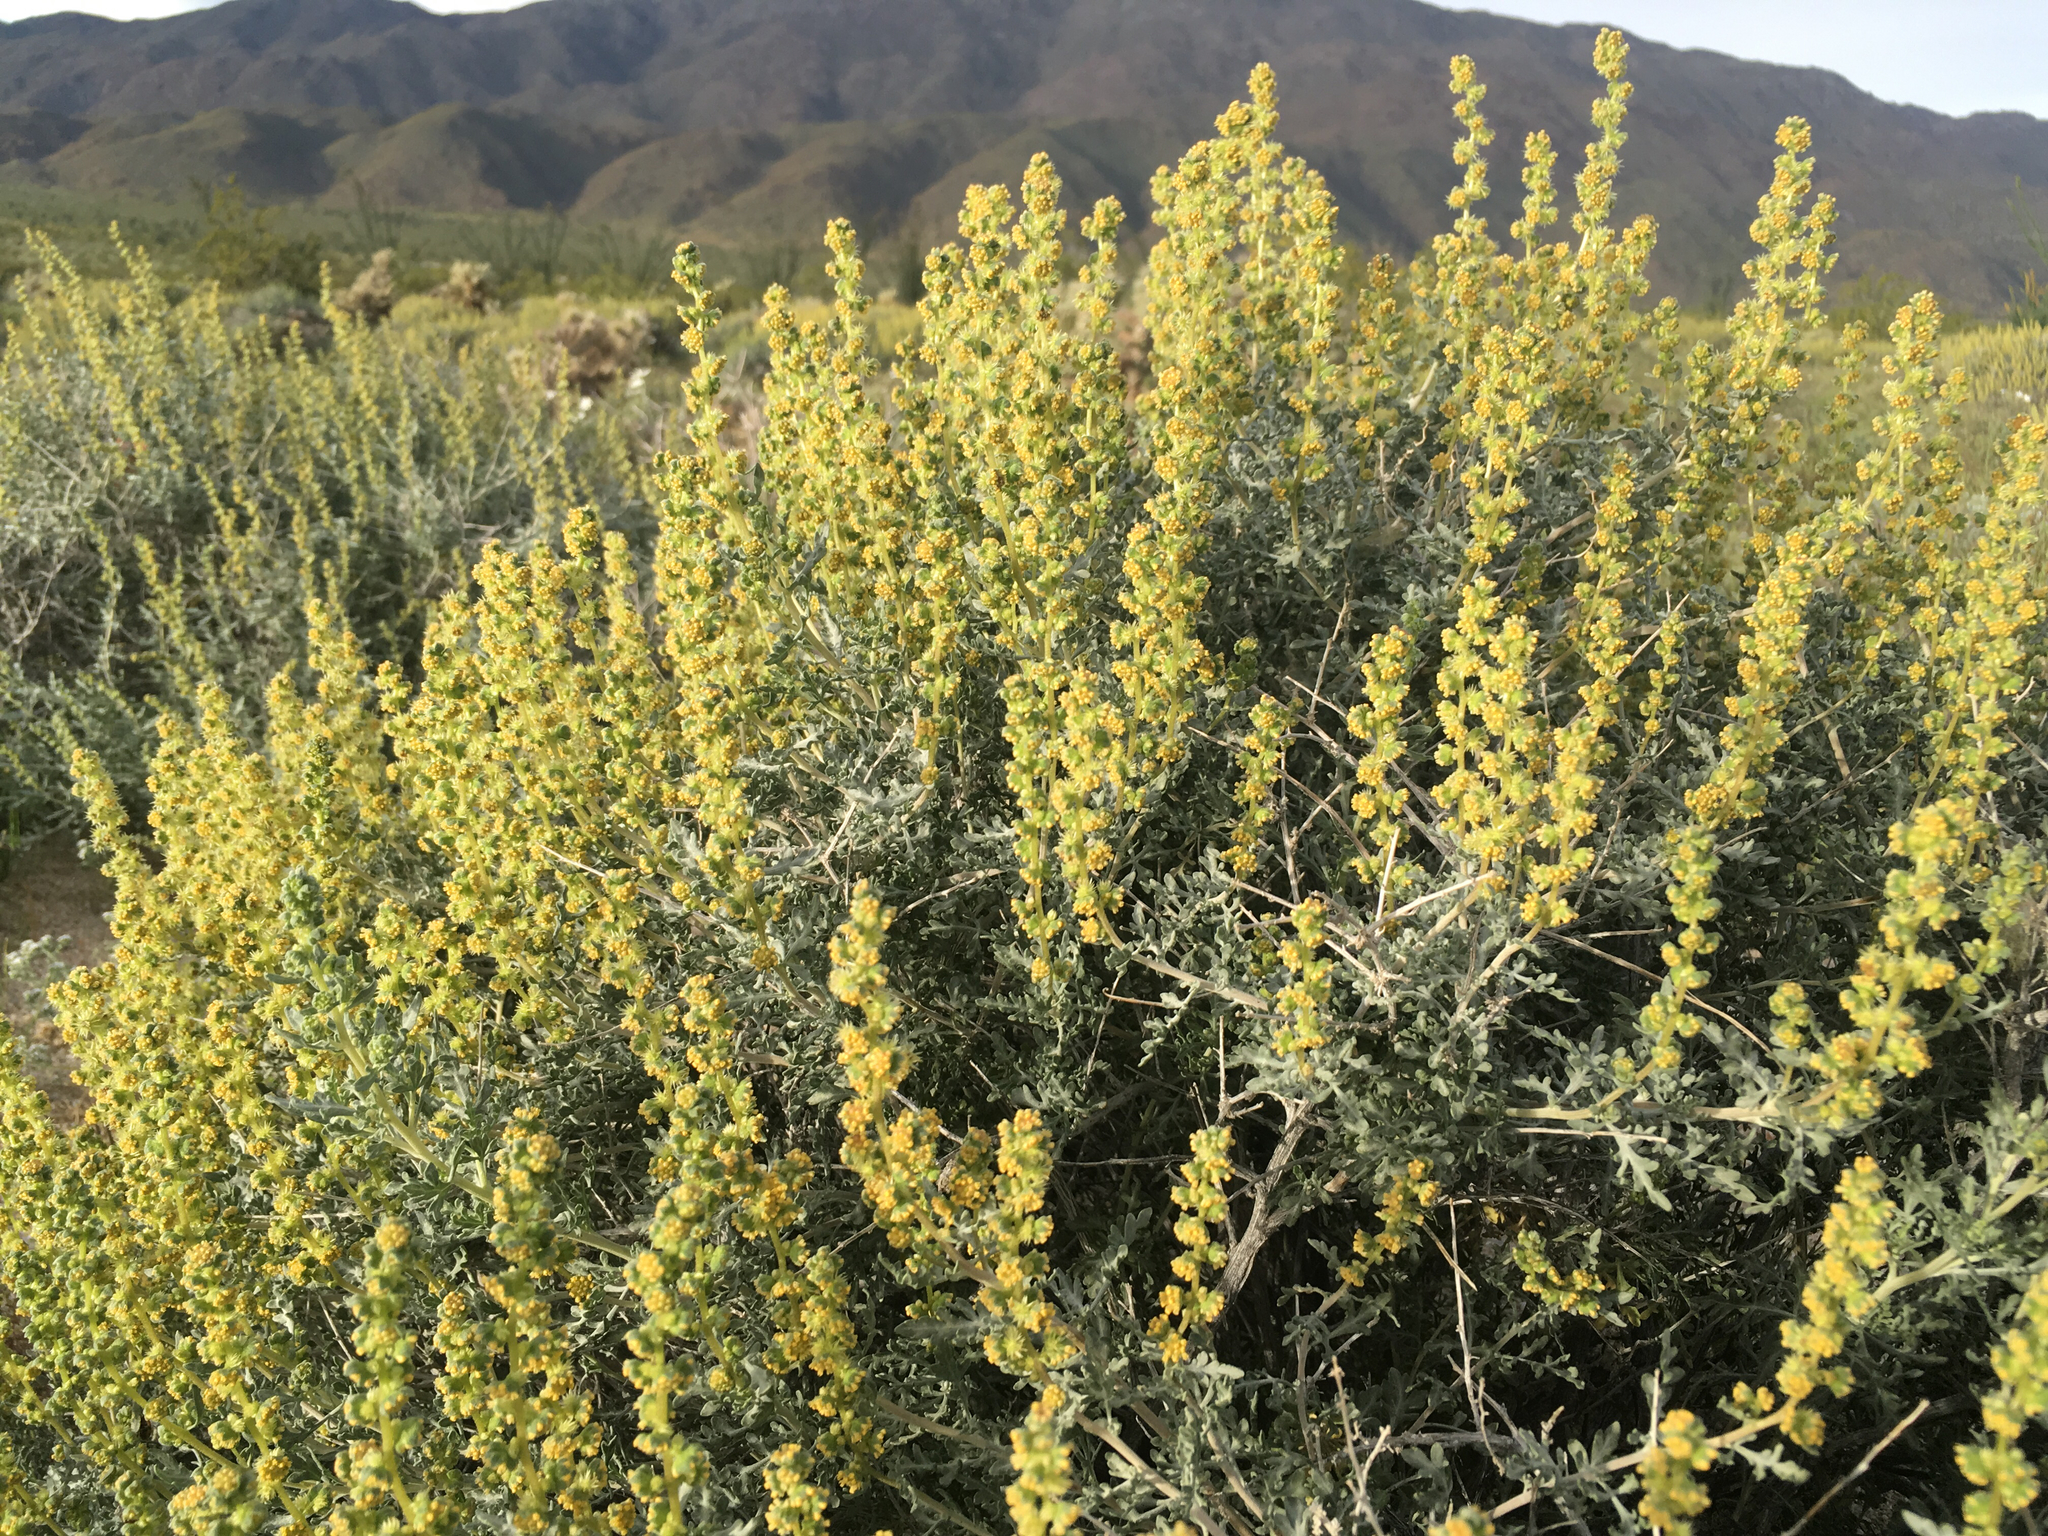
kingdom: Plantae
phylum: Tracheophyta
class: Magnoliopsida
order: Asterales
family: Asteraceae
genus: Ambrosia
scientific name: Ambrosia dumosa
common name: Bur-sage
